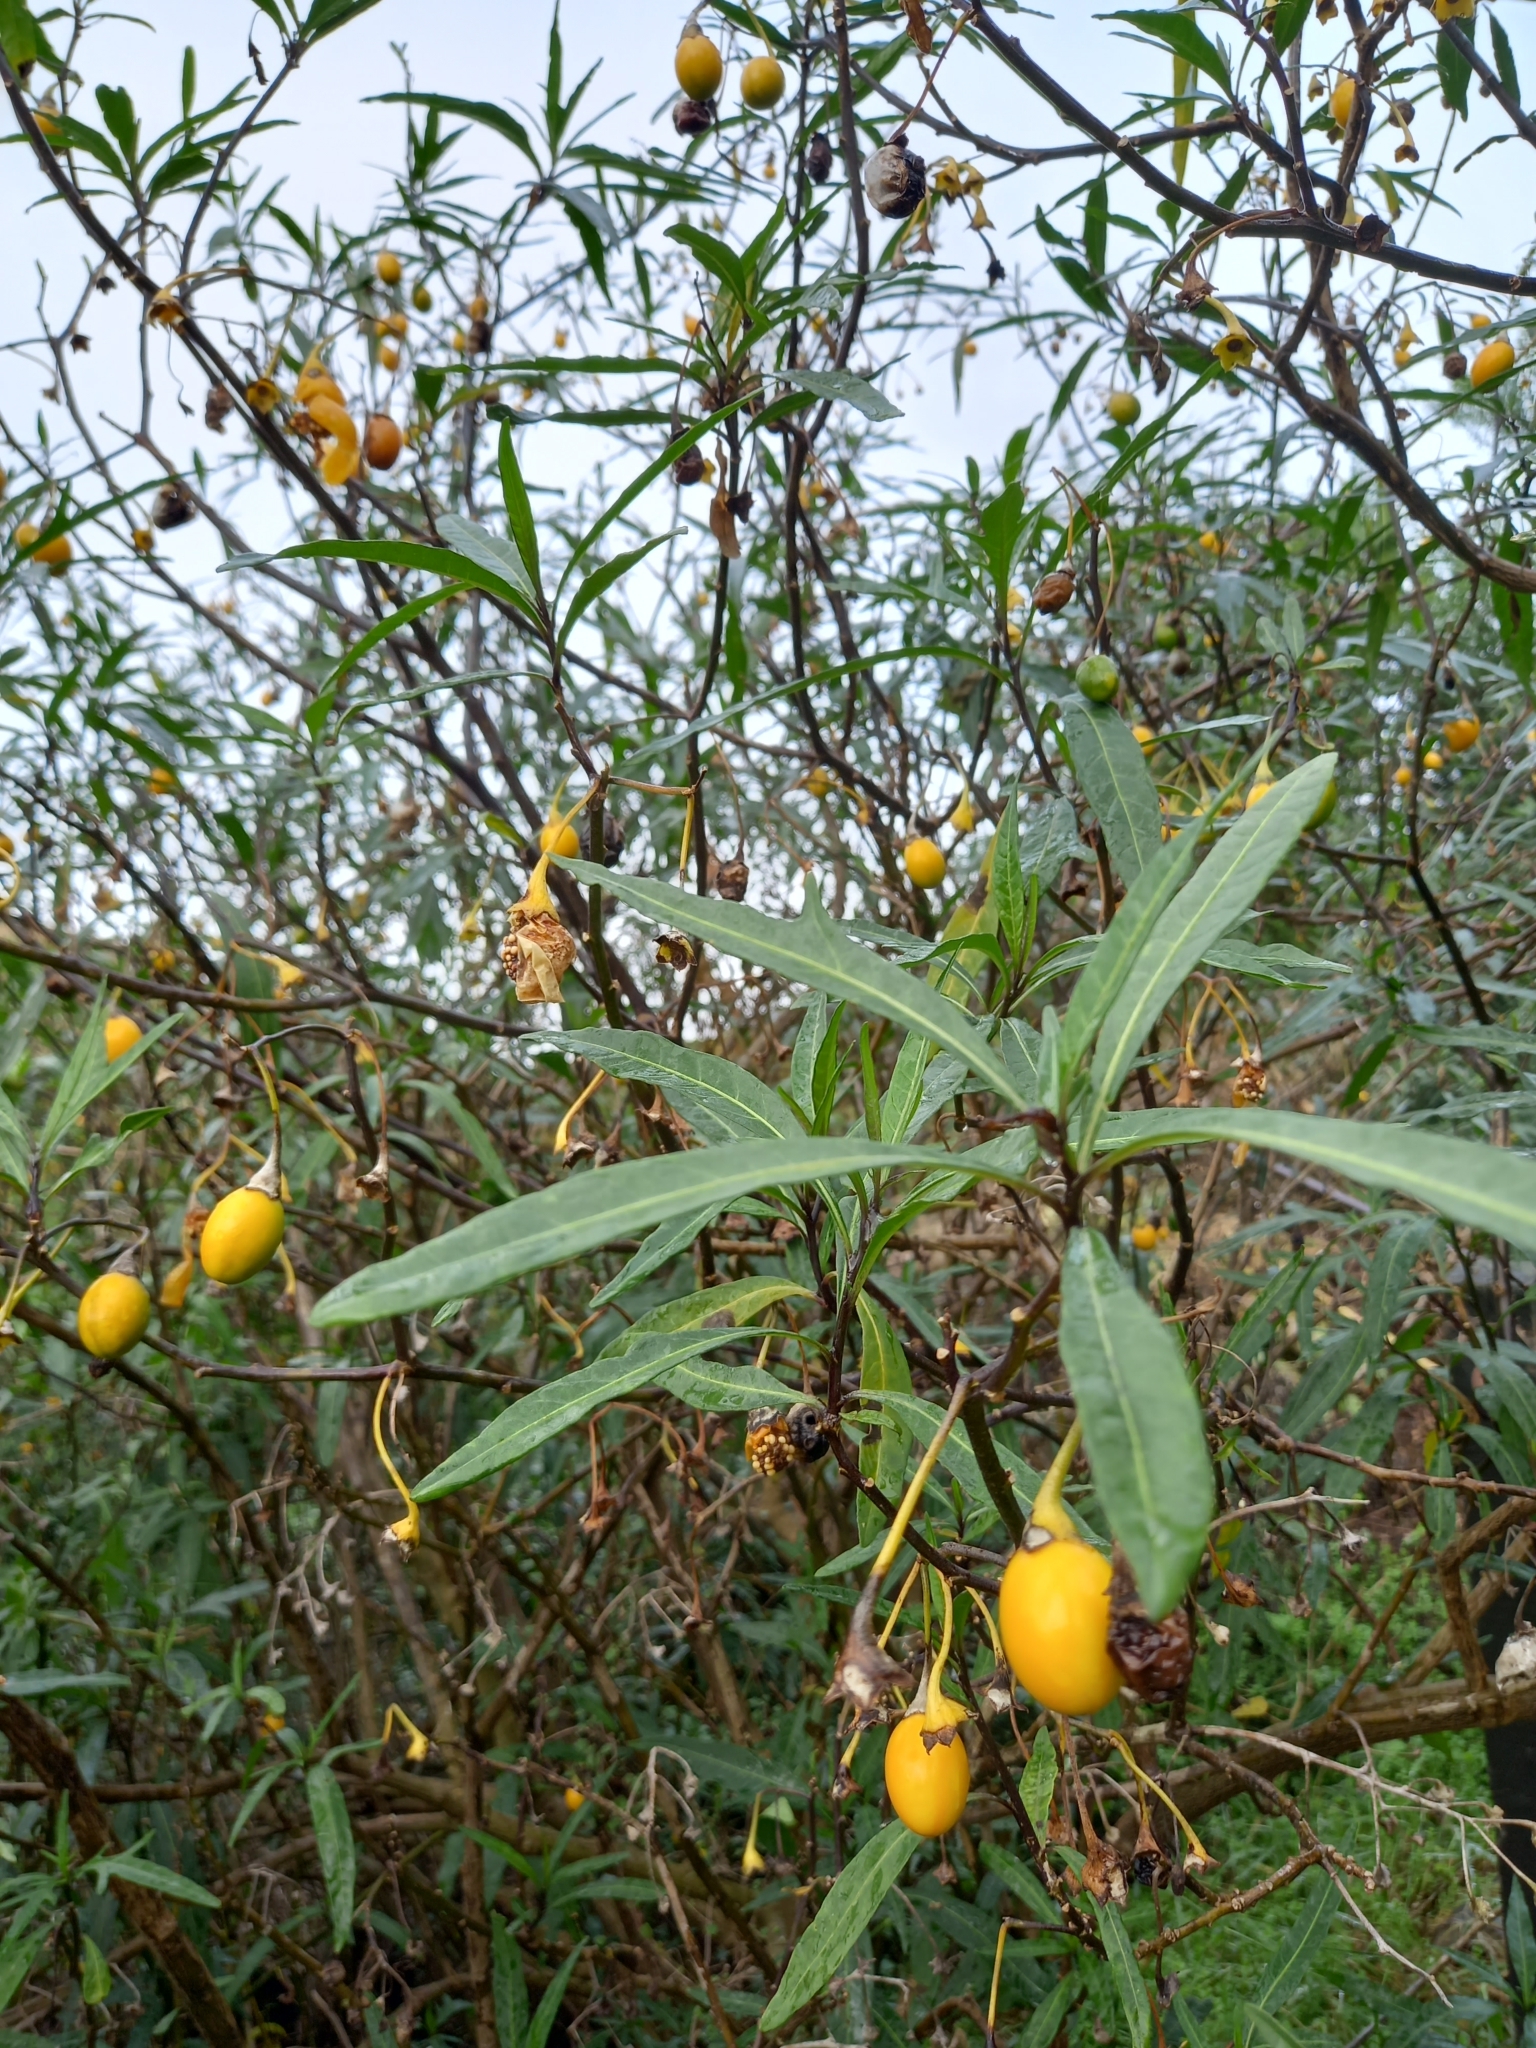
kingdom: Plantae
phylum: Tracheophyta
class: Magnoliopsida
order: Solanales
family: Solanaceae
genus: Solanum
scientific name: Solanum laciniatum
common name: Kangaroo-apple
